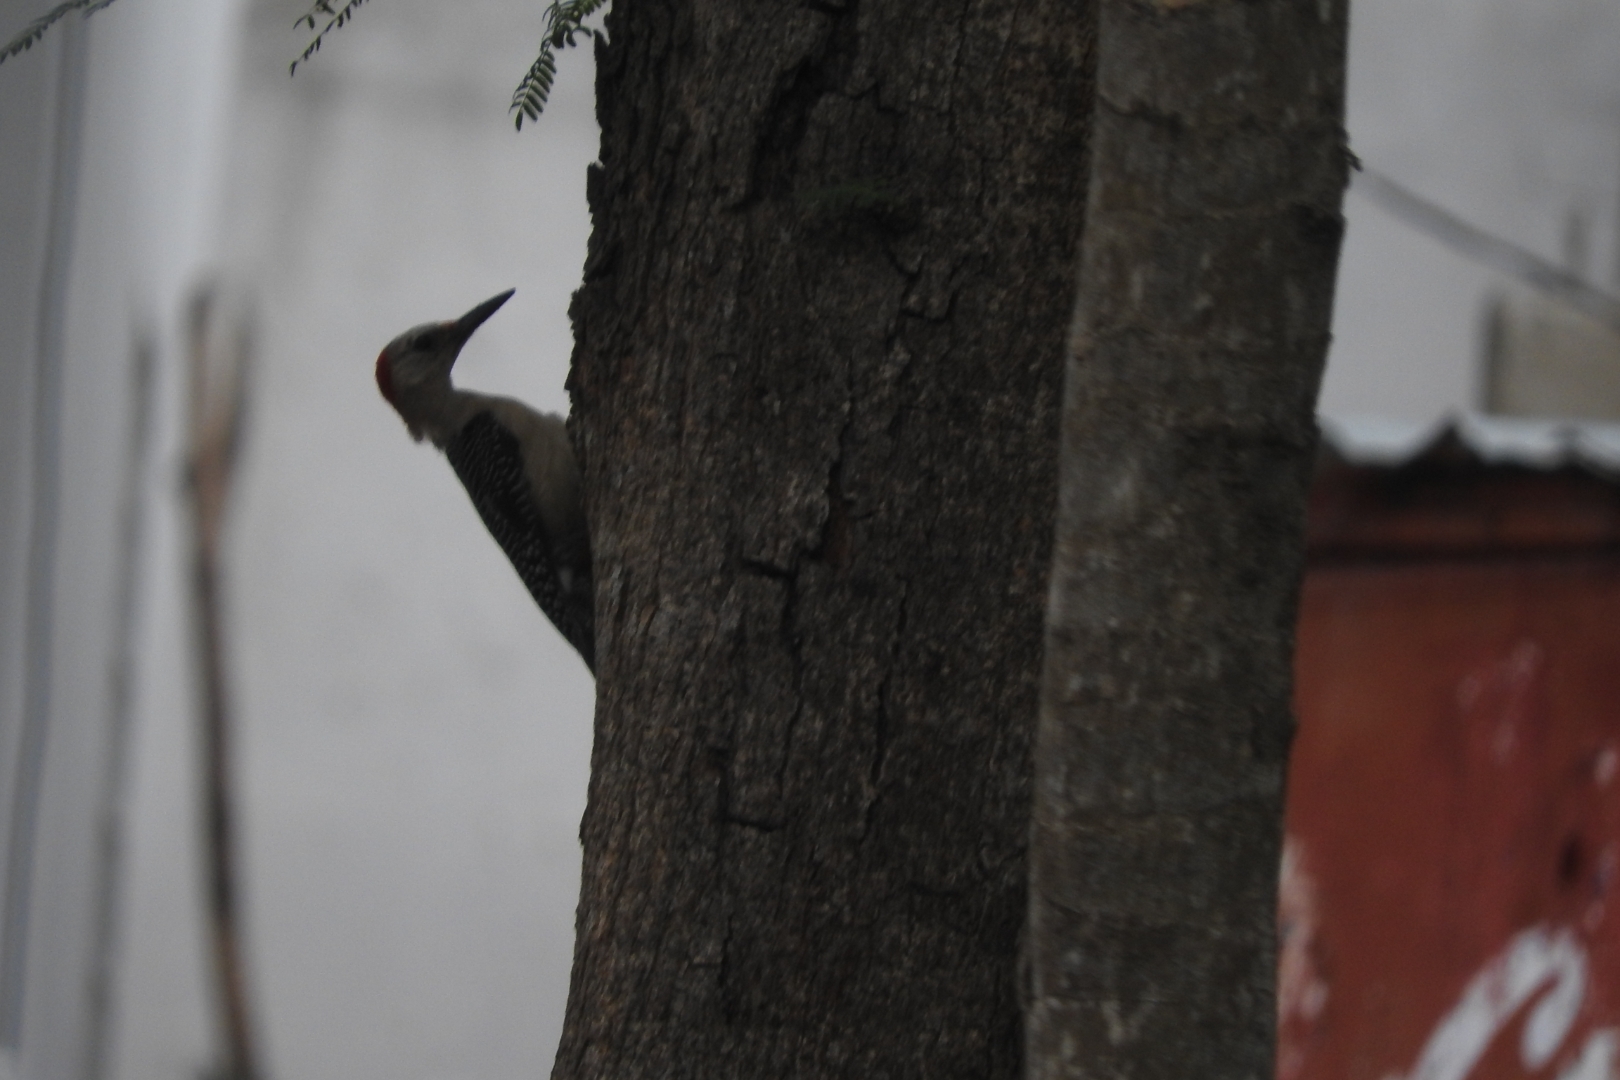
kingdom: Animalia
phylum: Chordata
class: Aves
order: Piciformes
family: Picidae
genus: Melanerpes
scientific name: Melanerpes aurifrons
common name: Golden-fronted woodpecker
